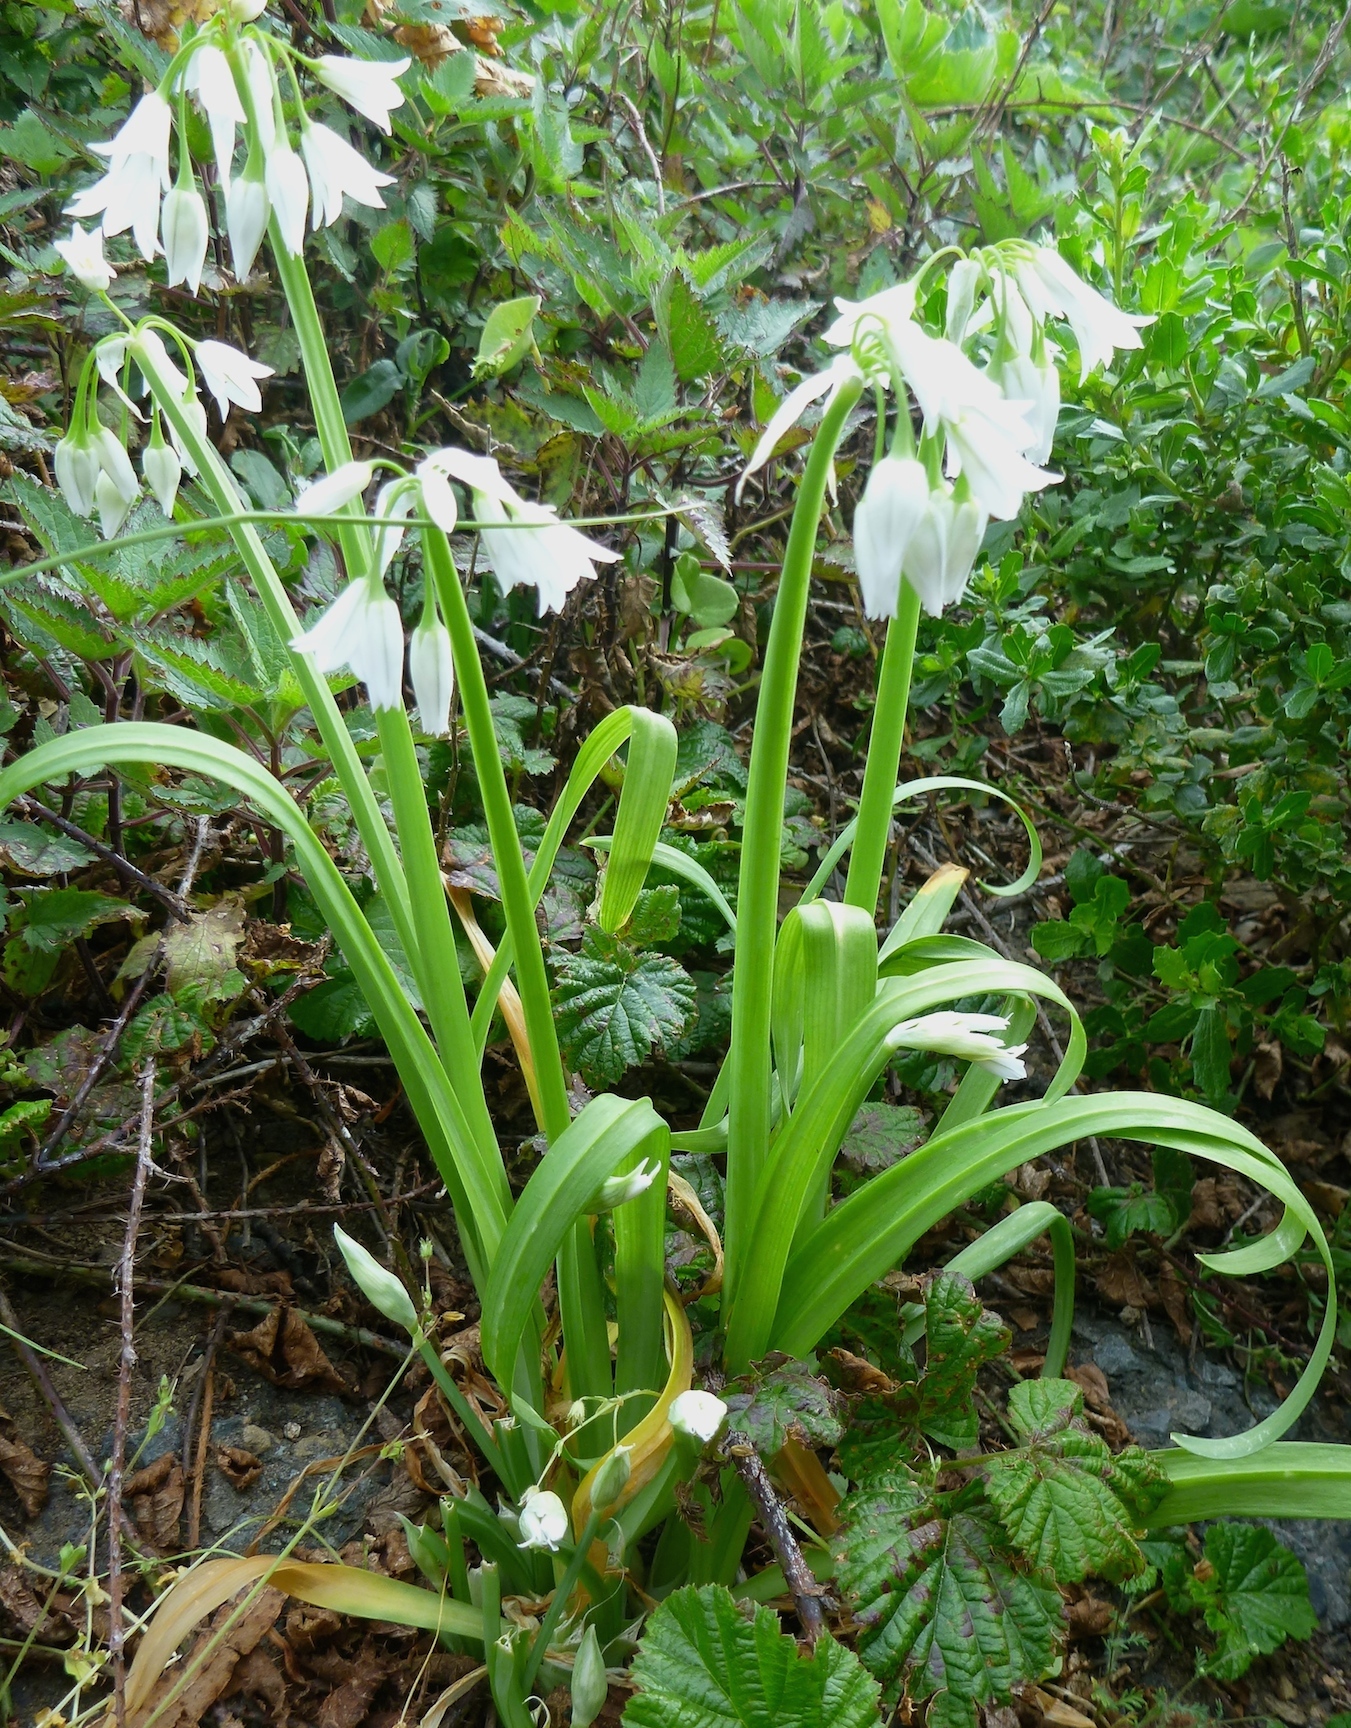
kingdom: Plantae
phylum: Tracheophyta
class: Liliopsida
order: Asparagales
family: Amaryllidaceae
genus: Allium
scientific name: Allium triquetrum
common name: Three-cornered garlic
